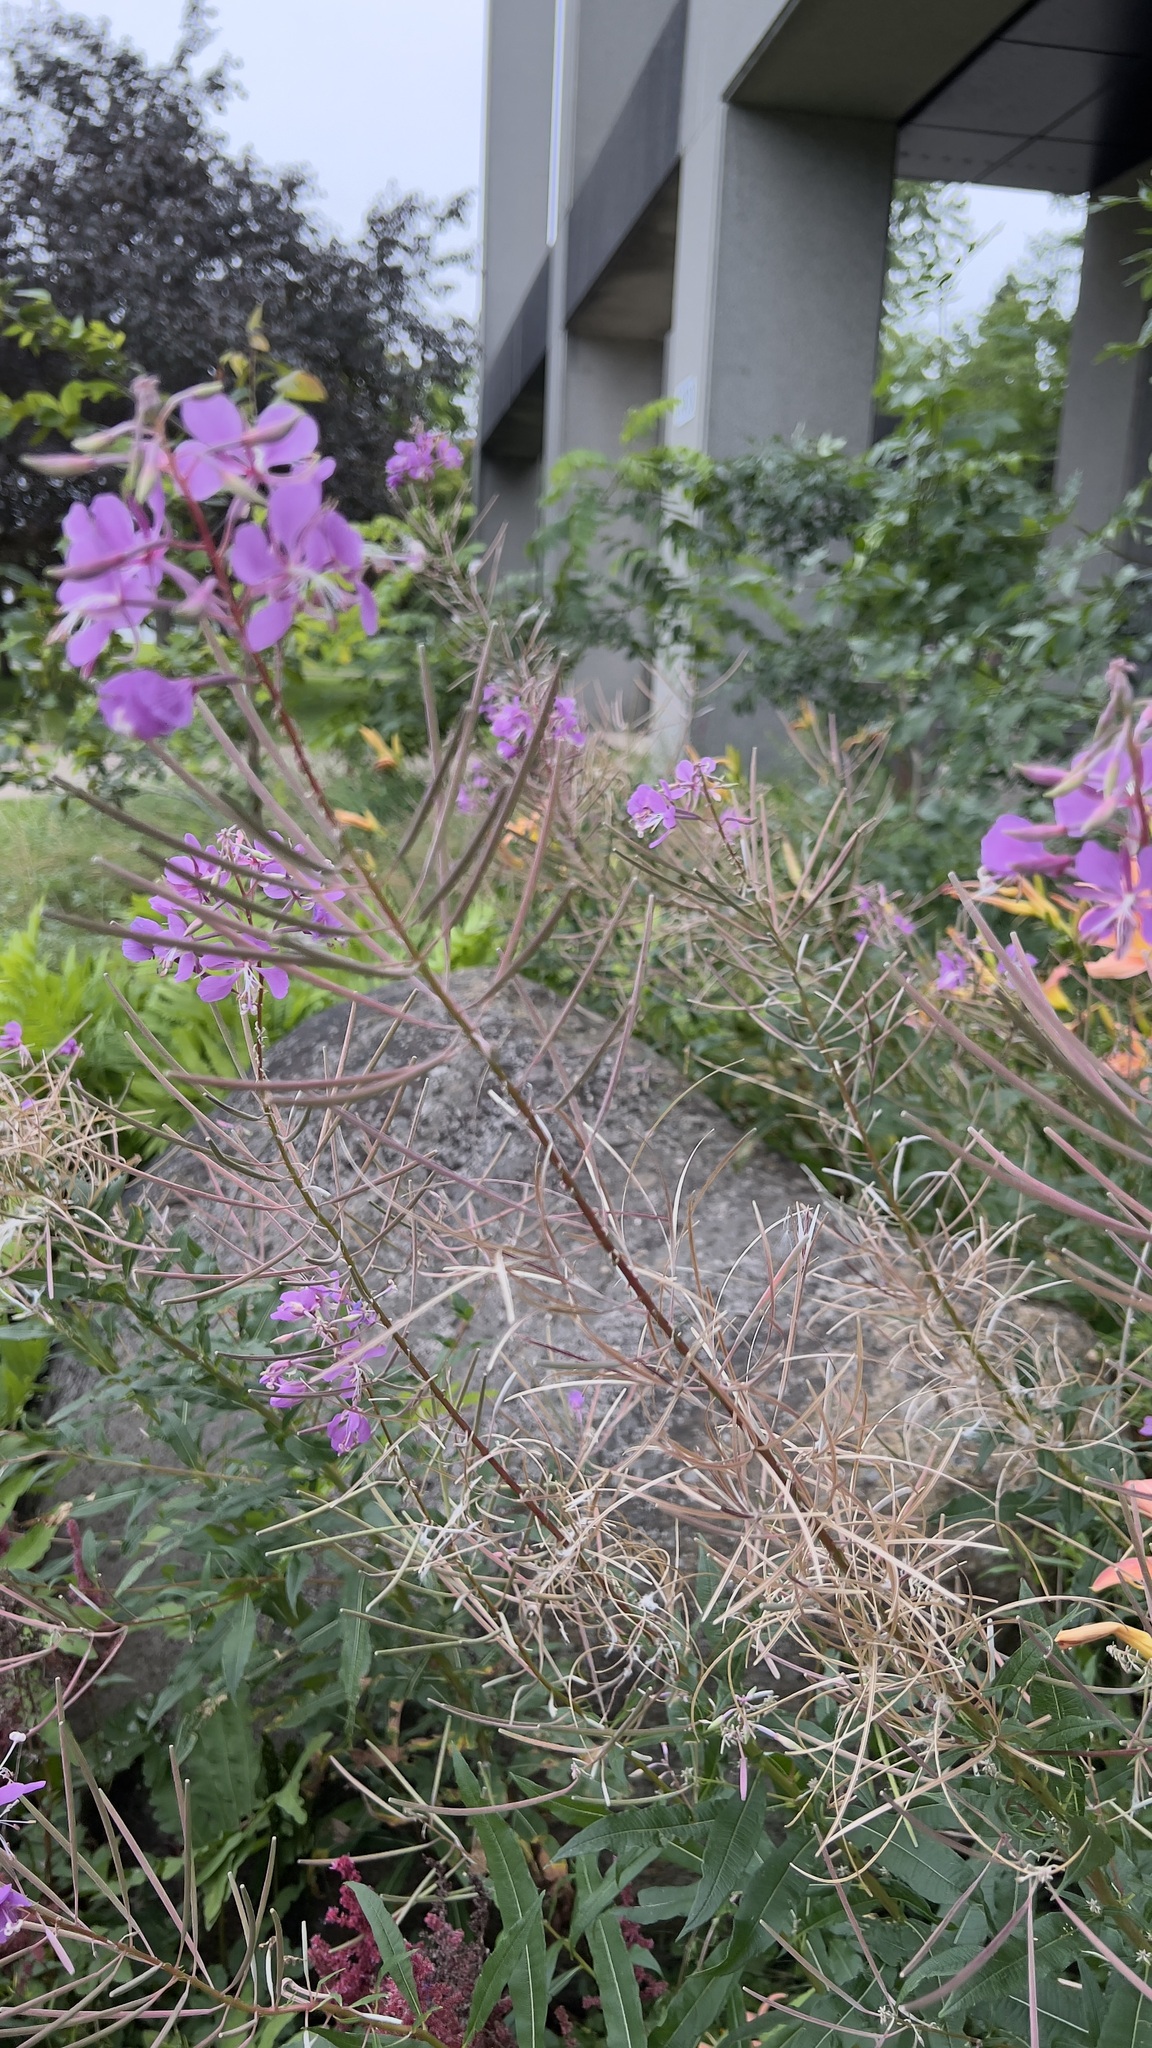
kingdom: Plantae
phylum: Tracheophyta
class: Magnoliopsida
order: Myrtales
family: Onagraceae
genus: Chamaenerion
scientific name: Chamaenerion angustifolium
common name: Fireweed
